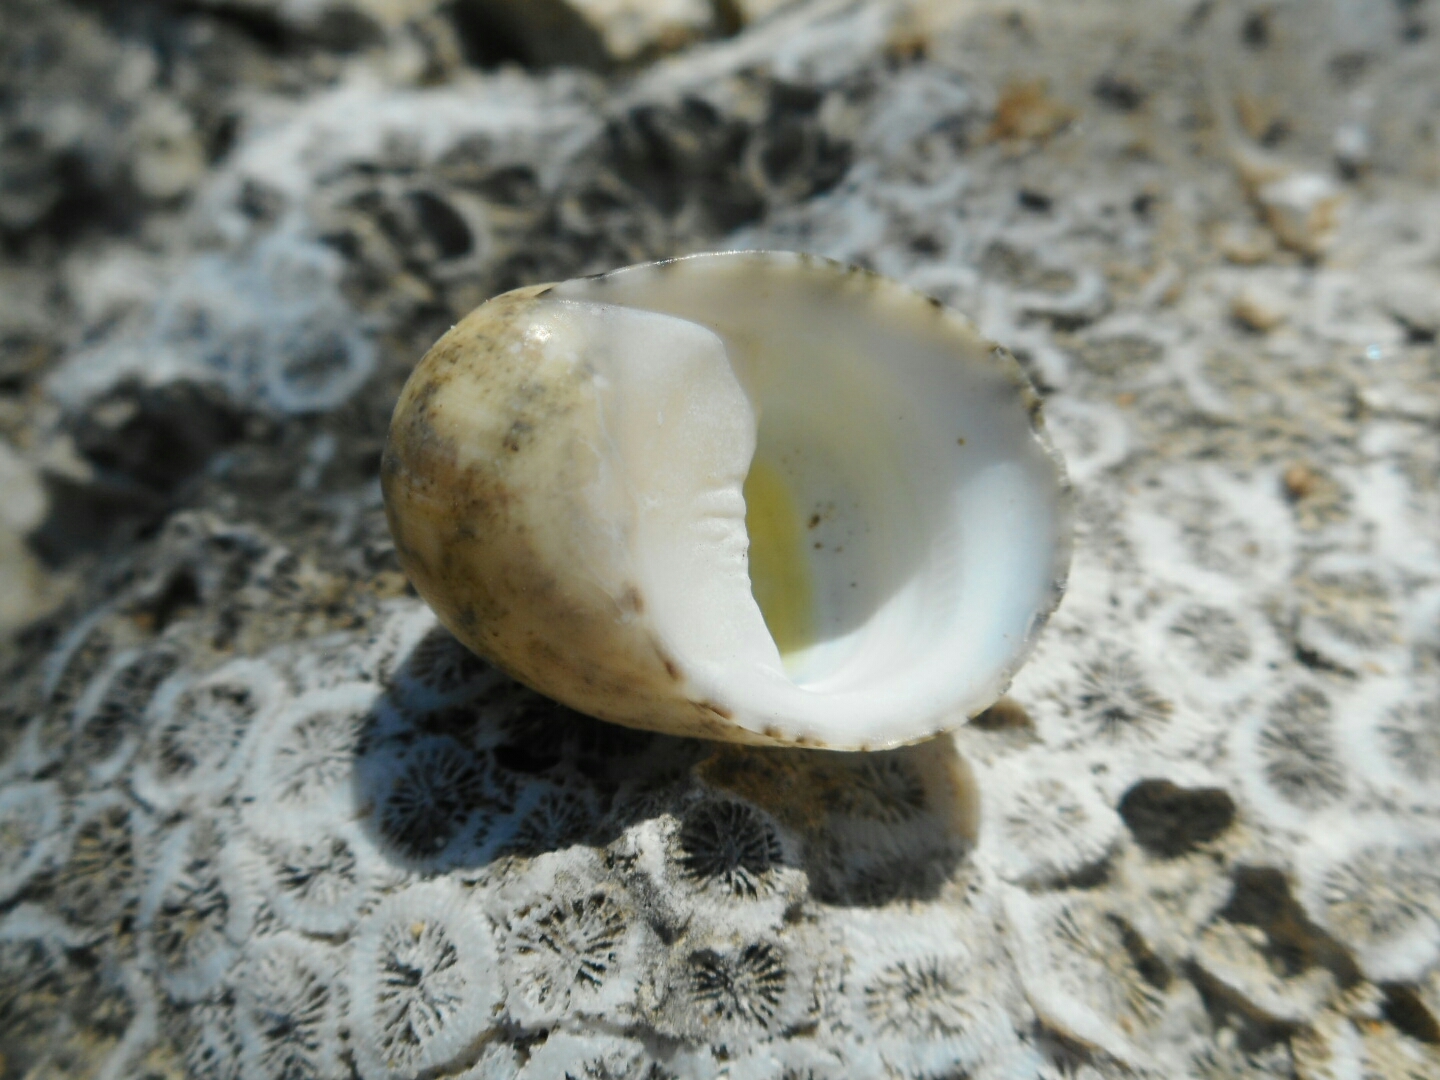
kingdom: Animalia
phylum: Mollusca
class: Gastropoda
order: Cycloneritida
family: Neritidae
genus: Nerita
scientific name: Nerita polita
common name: Polished nerite
